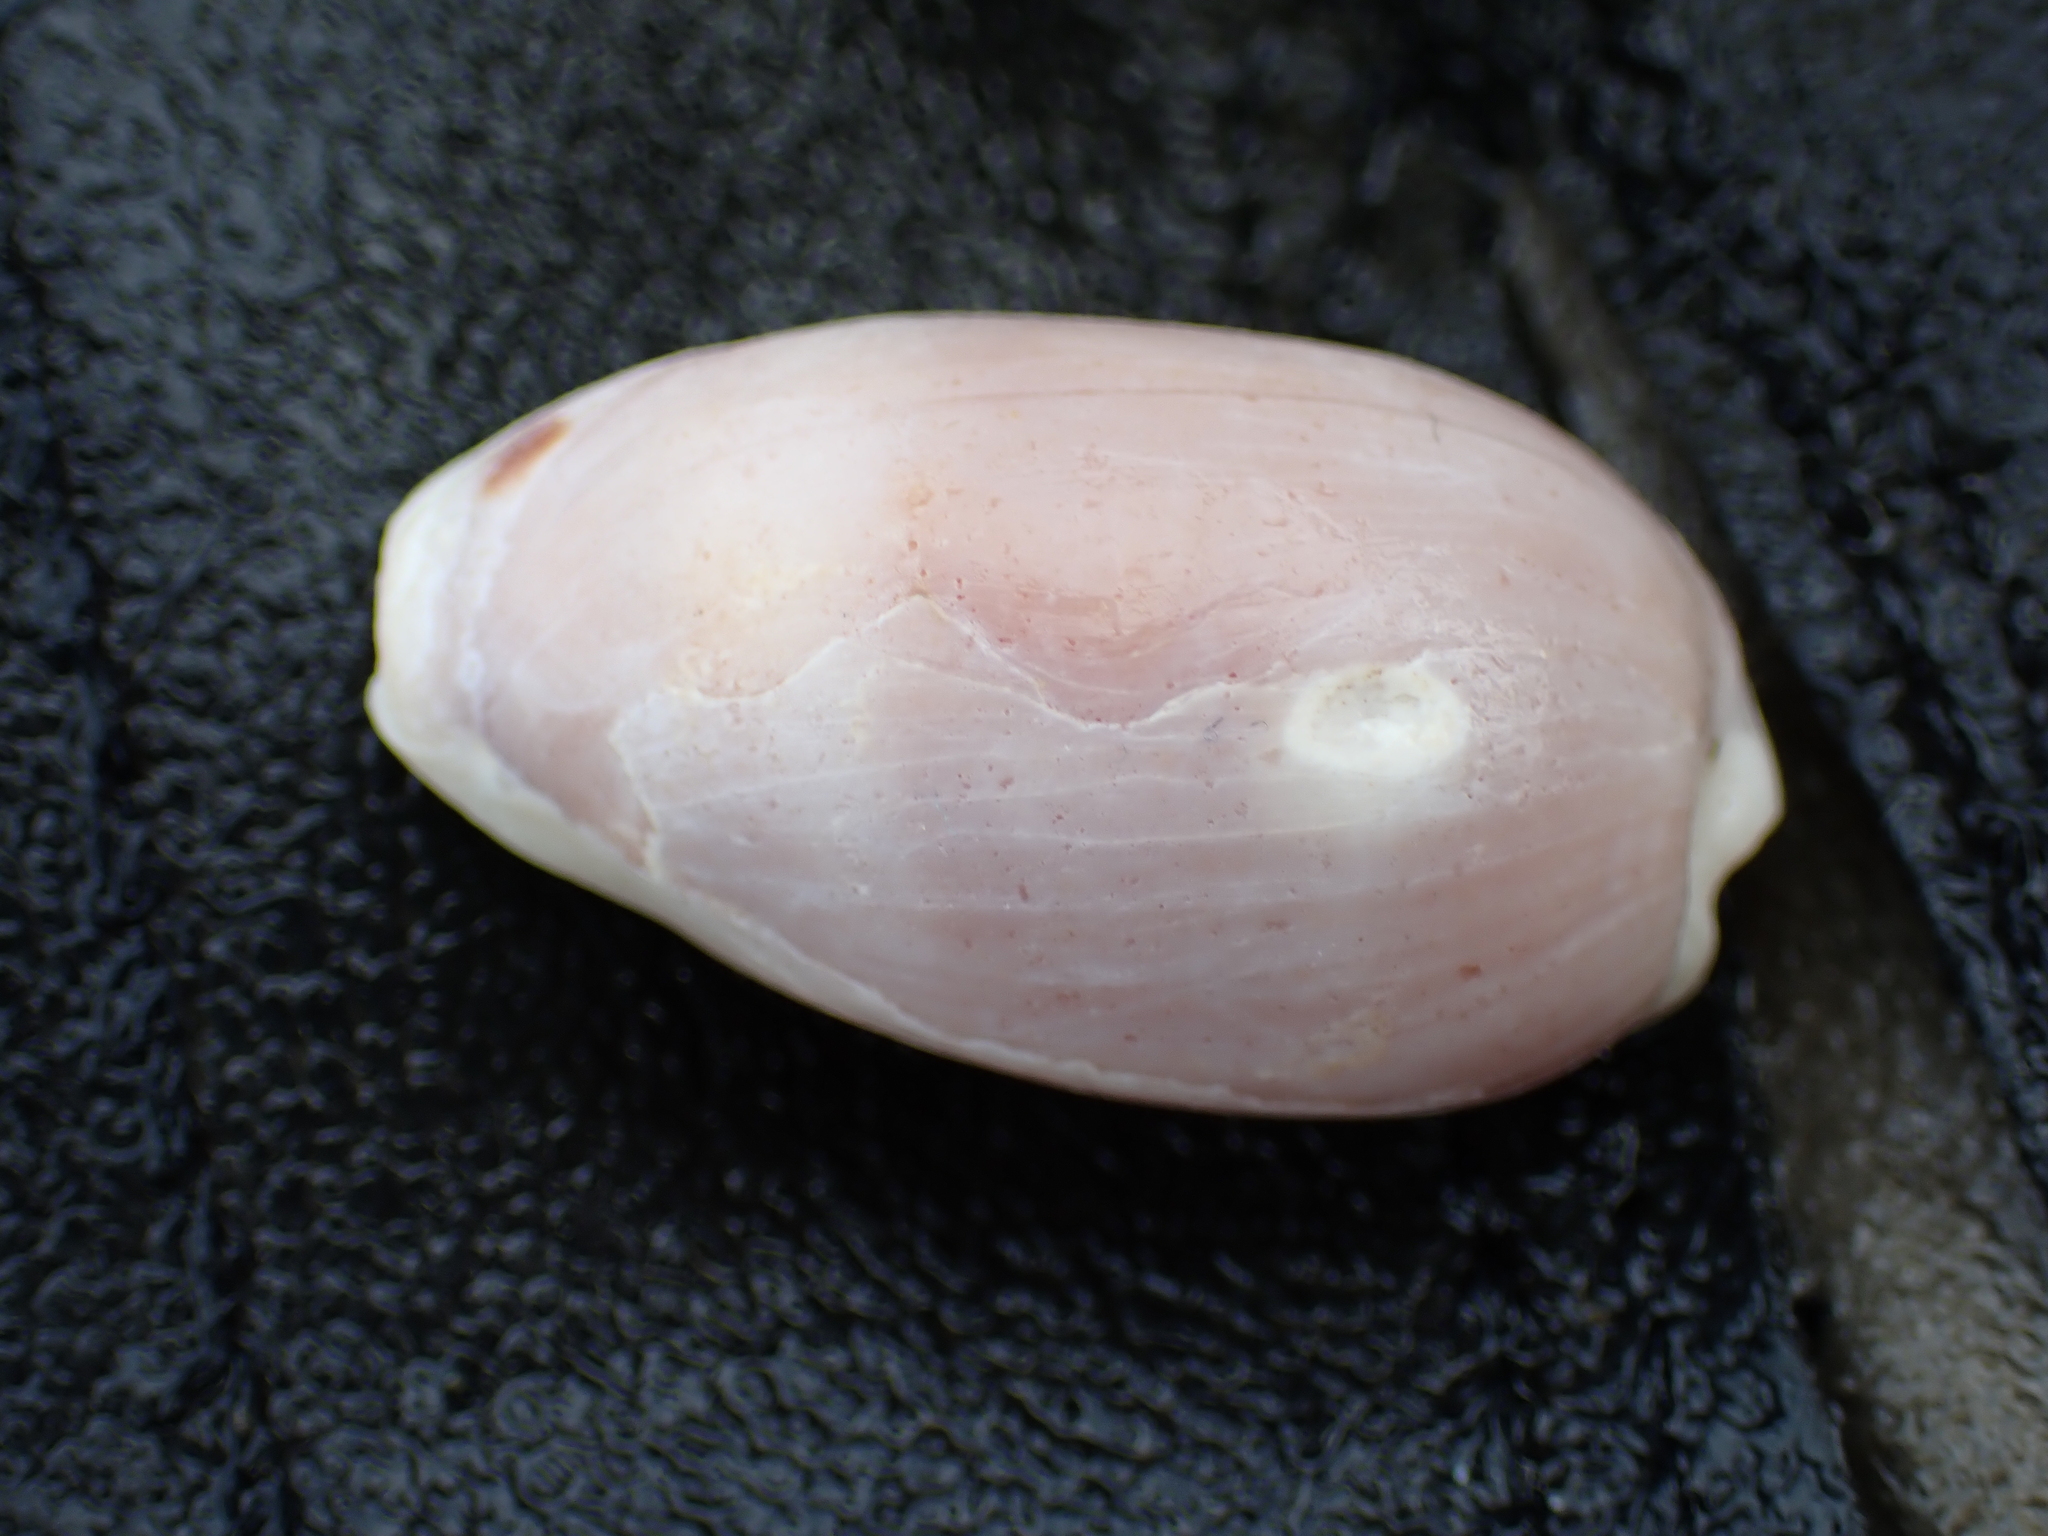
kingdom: Animalia
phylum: Mollusca
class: Gastropoda
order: Littorinimorpha
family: Cypraeidae
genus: Erronea
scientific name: Erronea errones
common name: Mistaken cowrie
